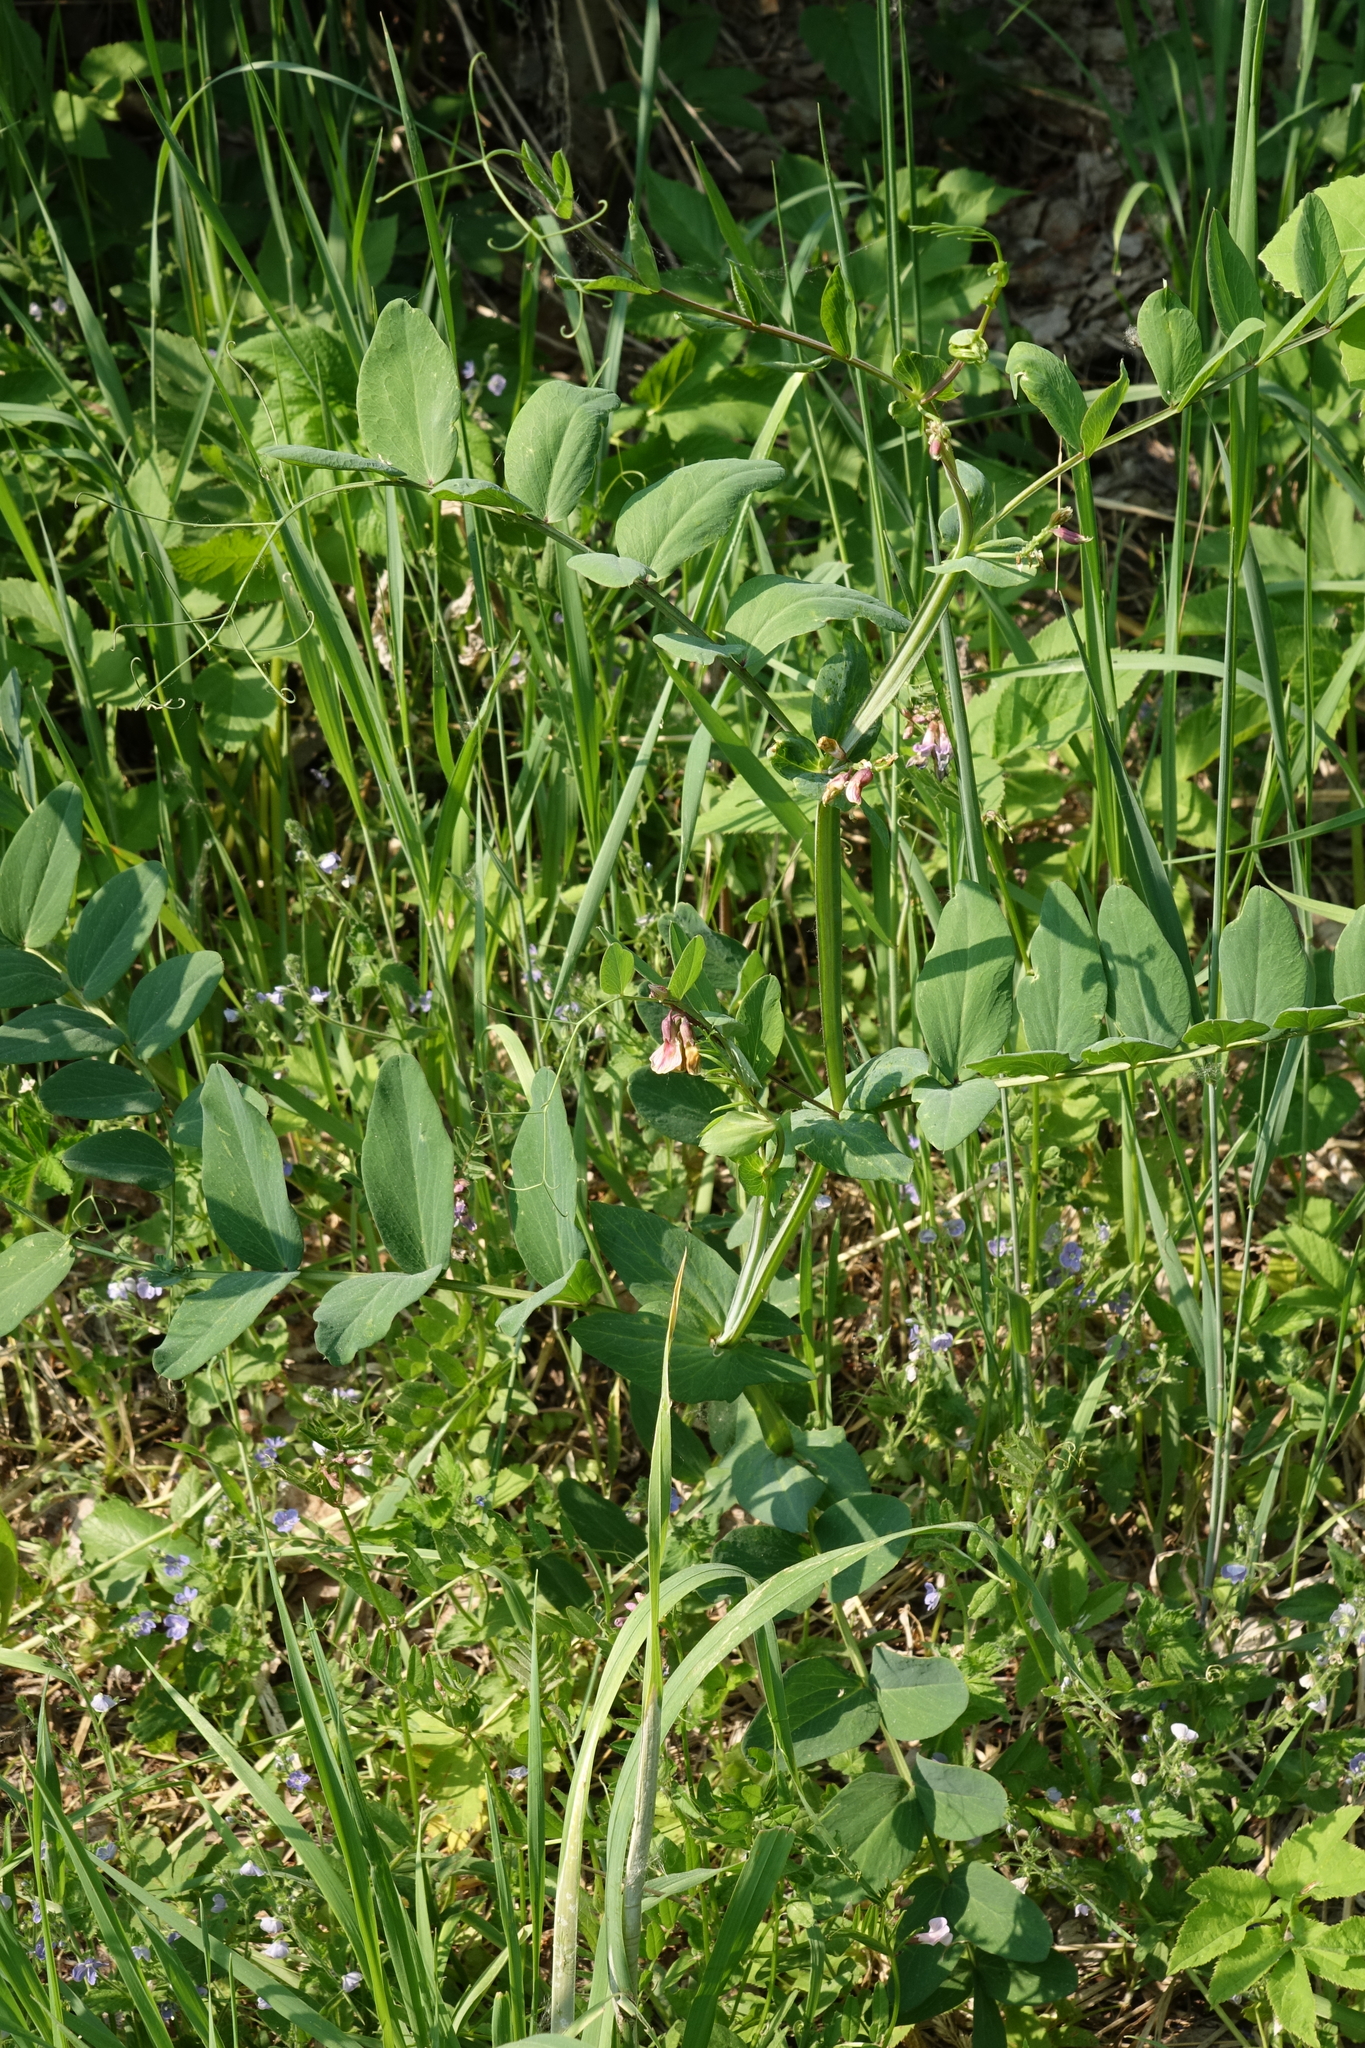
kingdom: Plantae
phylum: Tracheophyta
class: Magnoliopsida
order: Fabales
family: Fabaceae
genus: Vicia
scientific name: Vicia sepium
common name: Bush vetch
